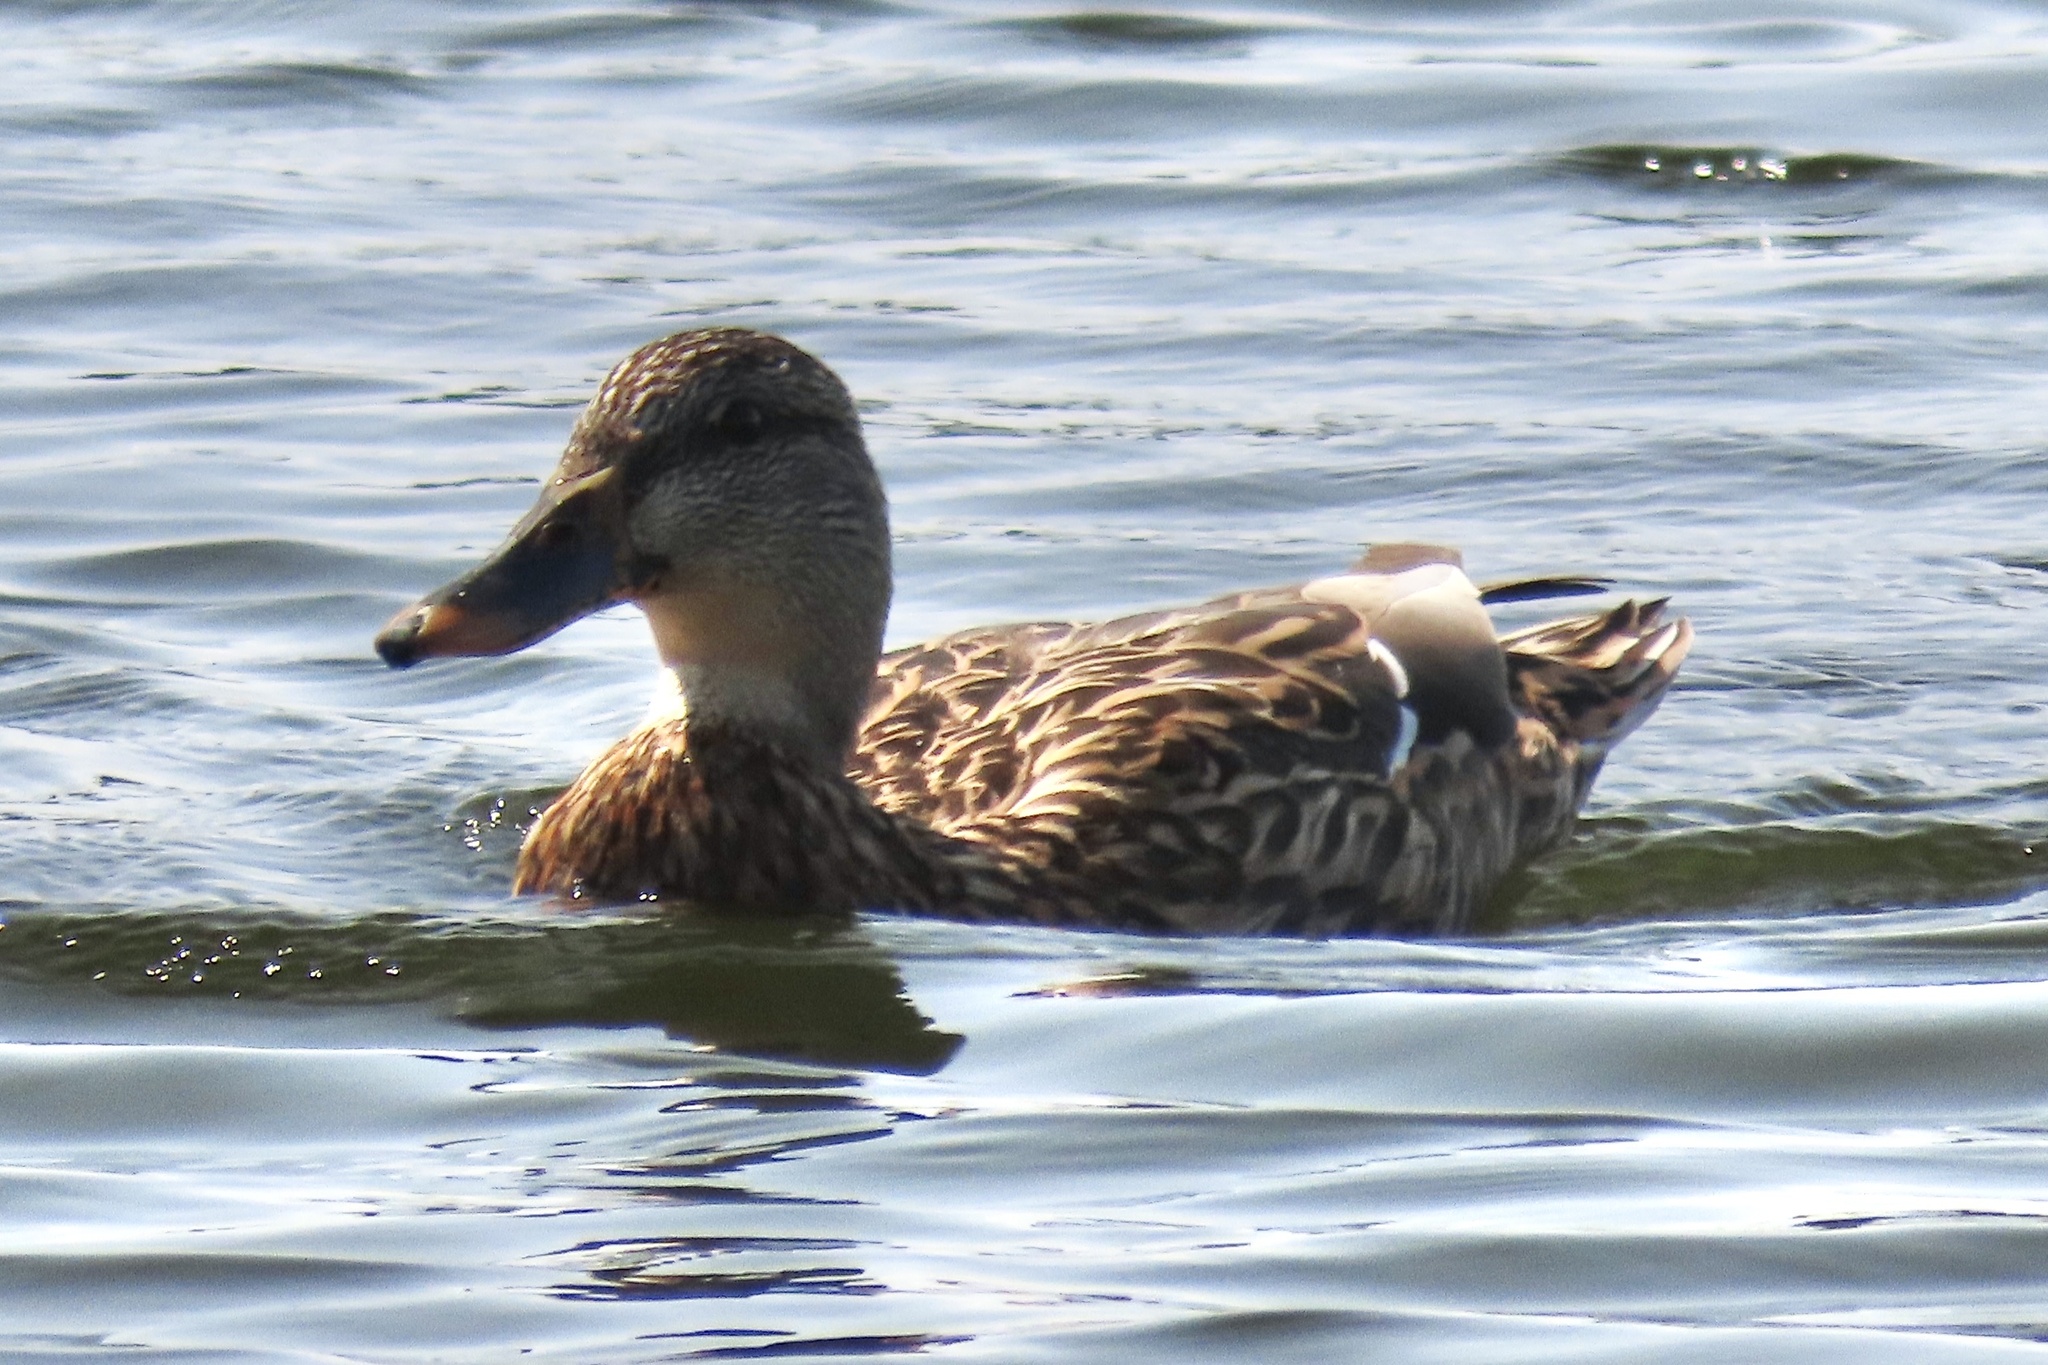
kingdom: Animalia
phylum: Chordata
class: Aves
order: Anseriformes
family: Anatidae
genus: Anas
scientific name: Anas platyrhynchos
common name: Mallard
